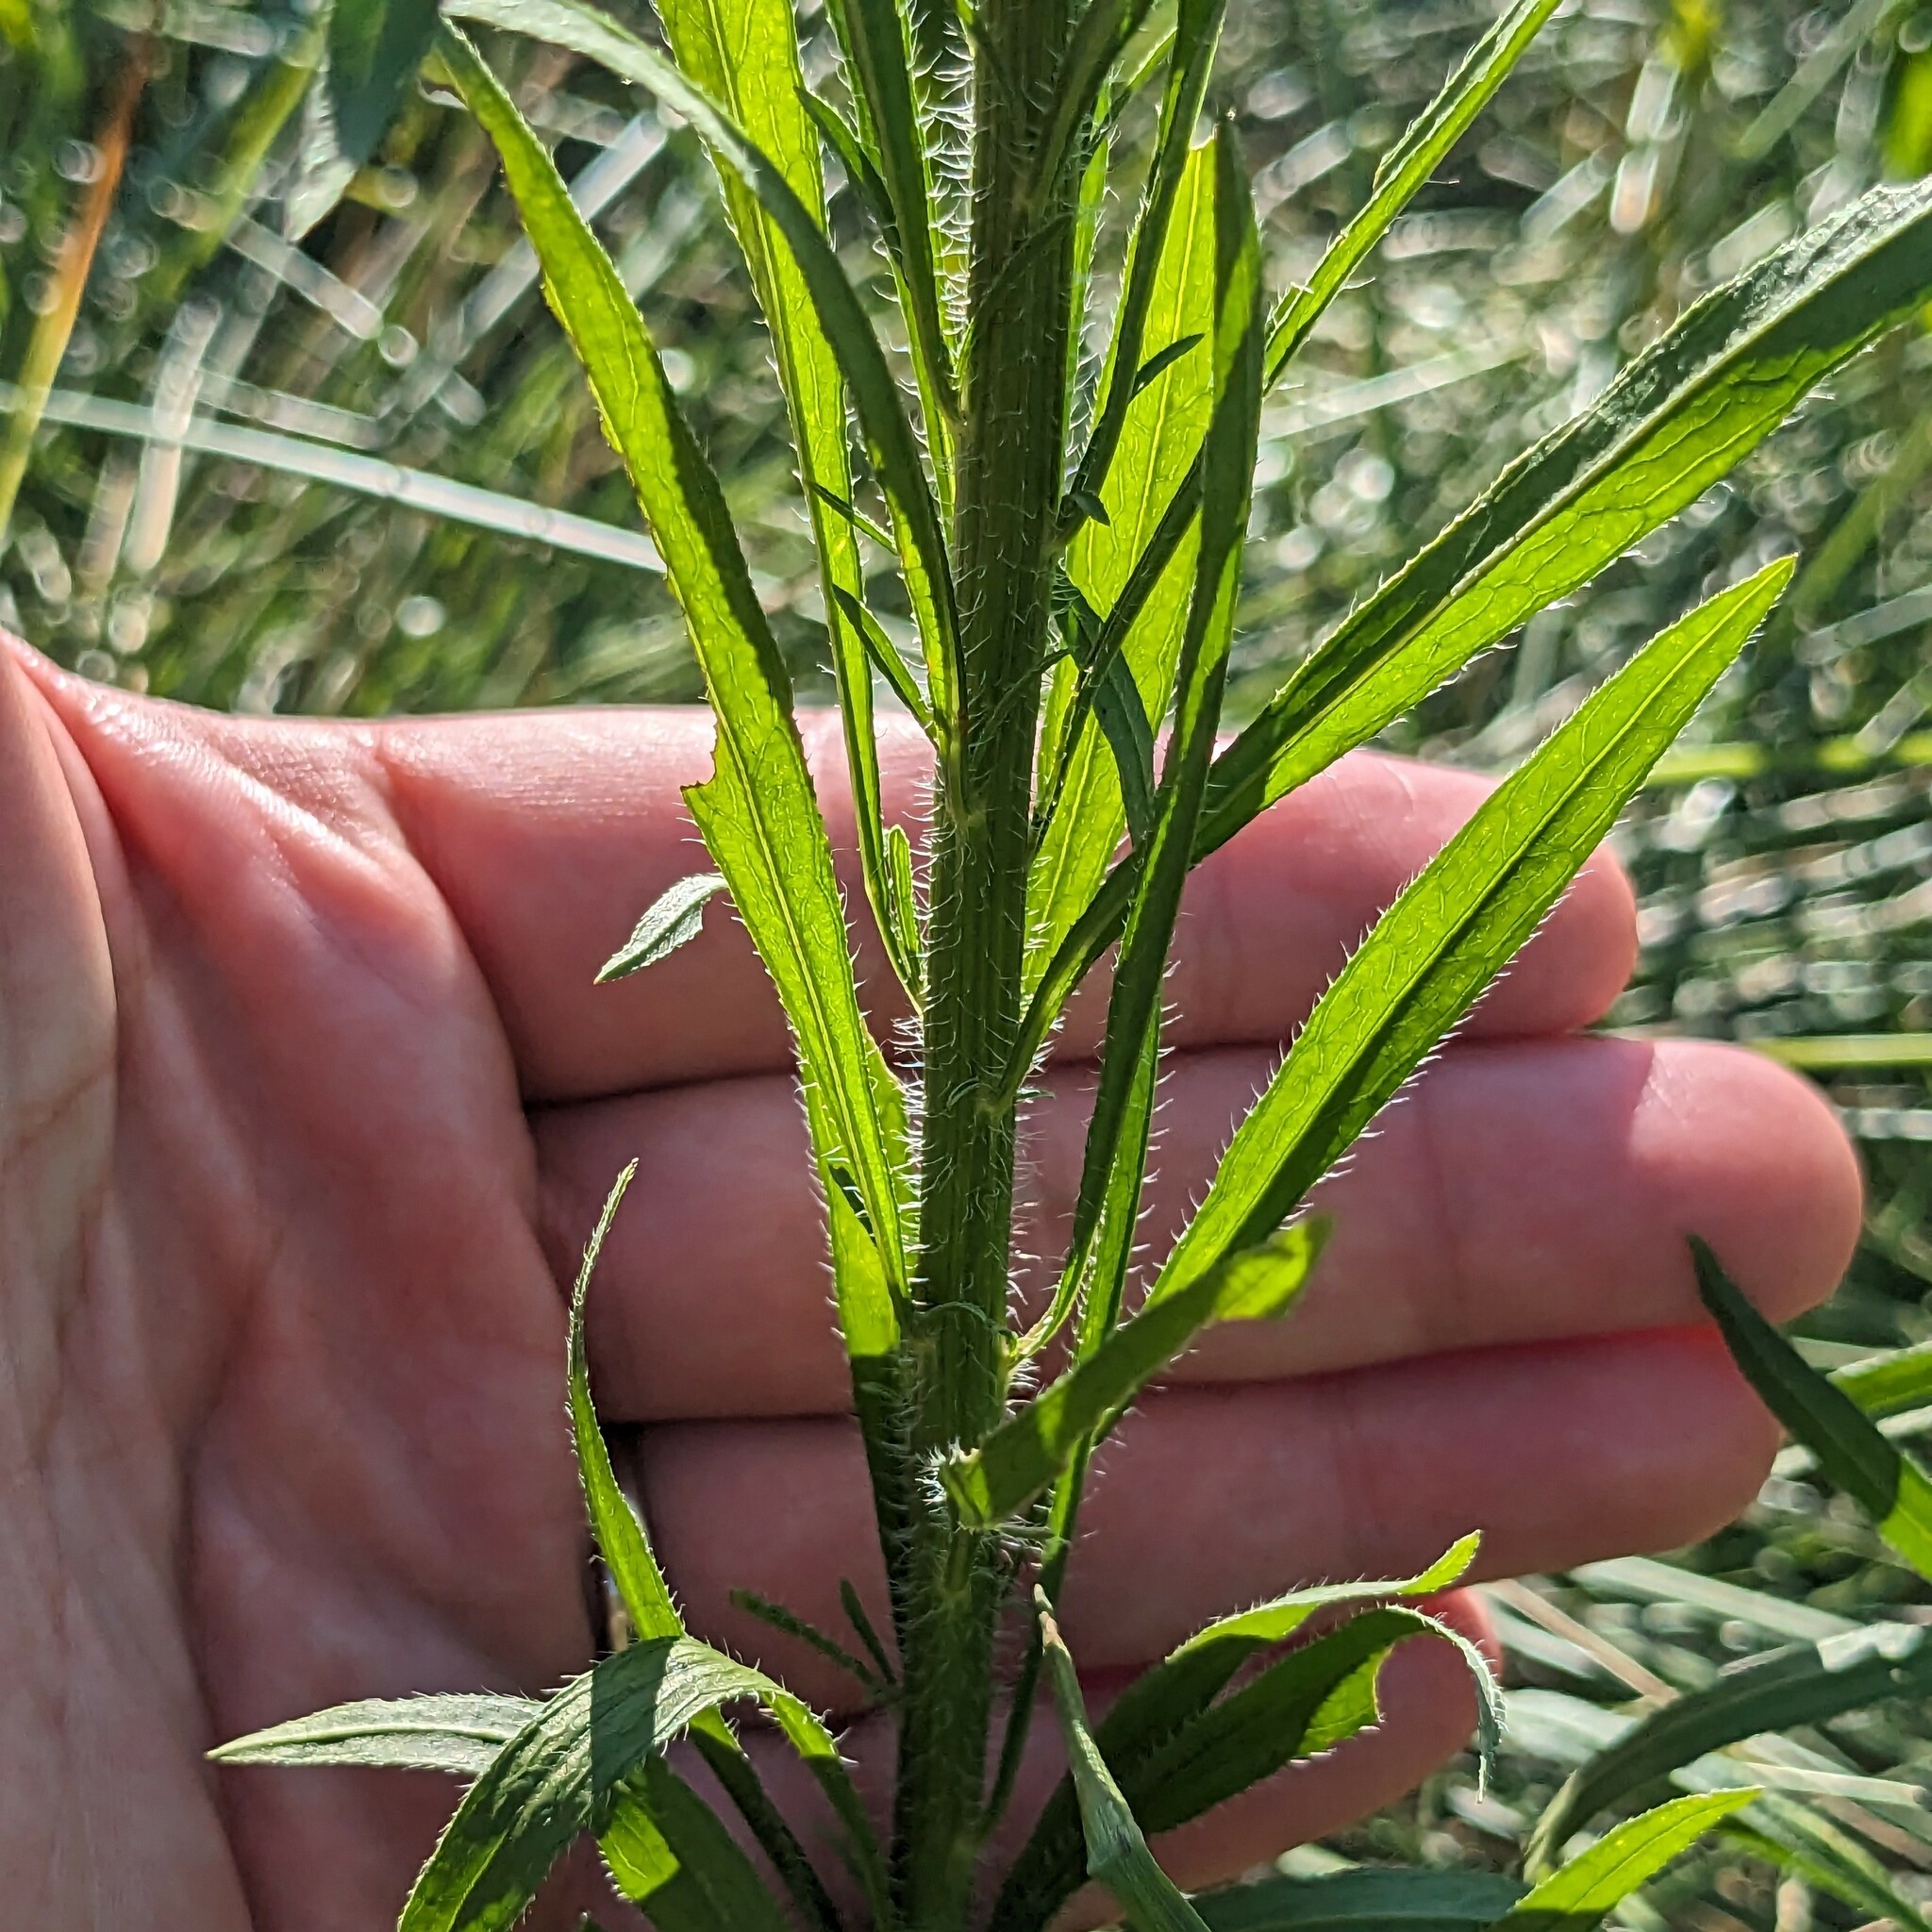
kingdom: Plantae
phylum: Tracheophyta
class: Magnoliopsida
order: Asterales
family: Asteraceae
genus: Erigeron
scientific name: Erigeron canadensis
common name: Canadian fleabane
